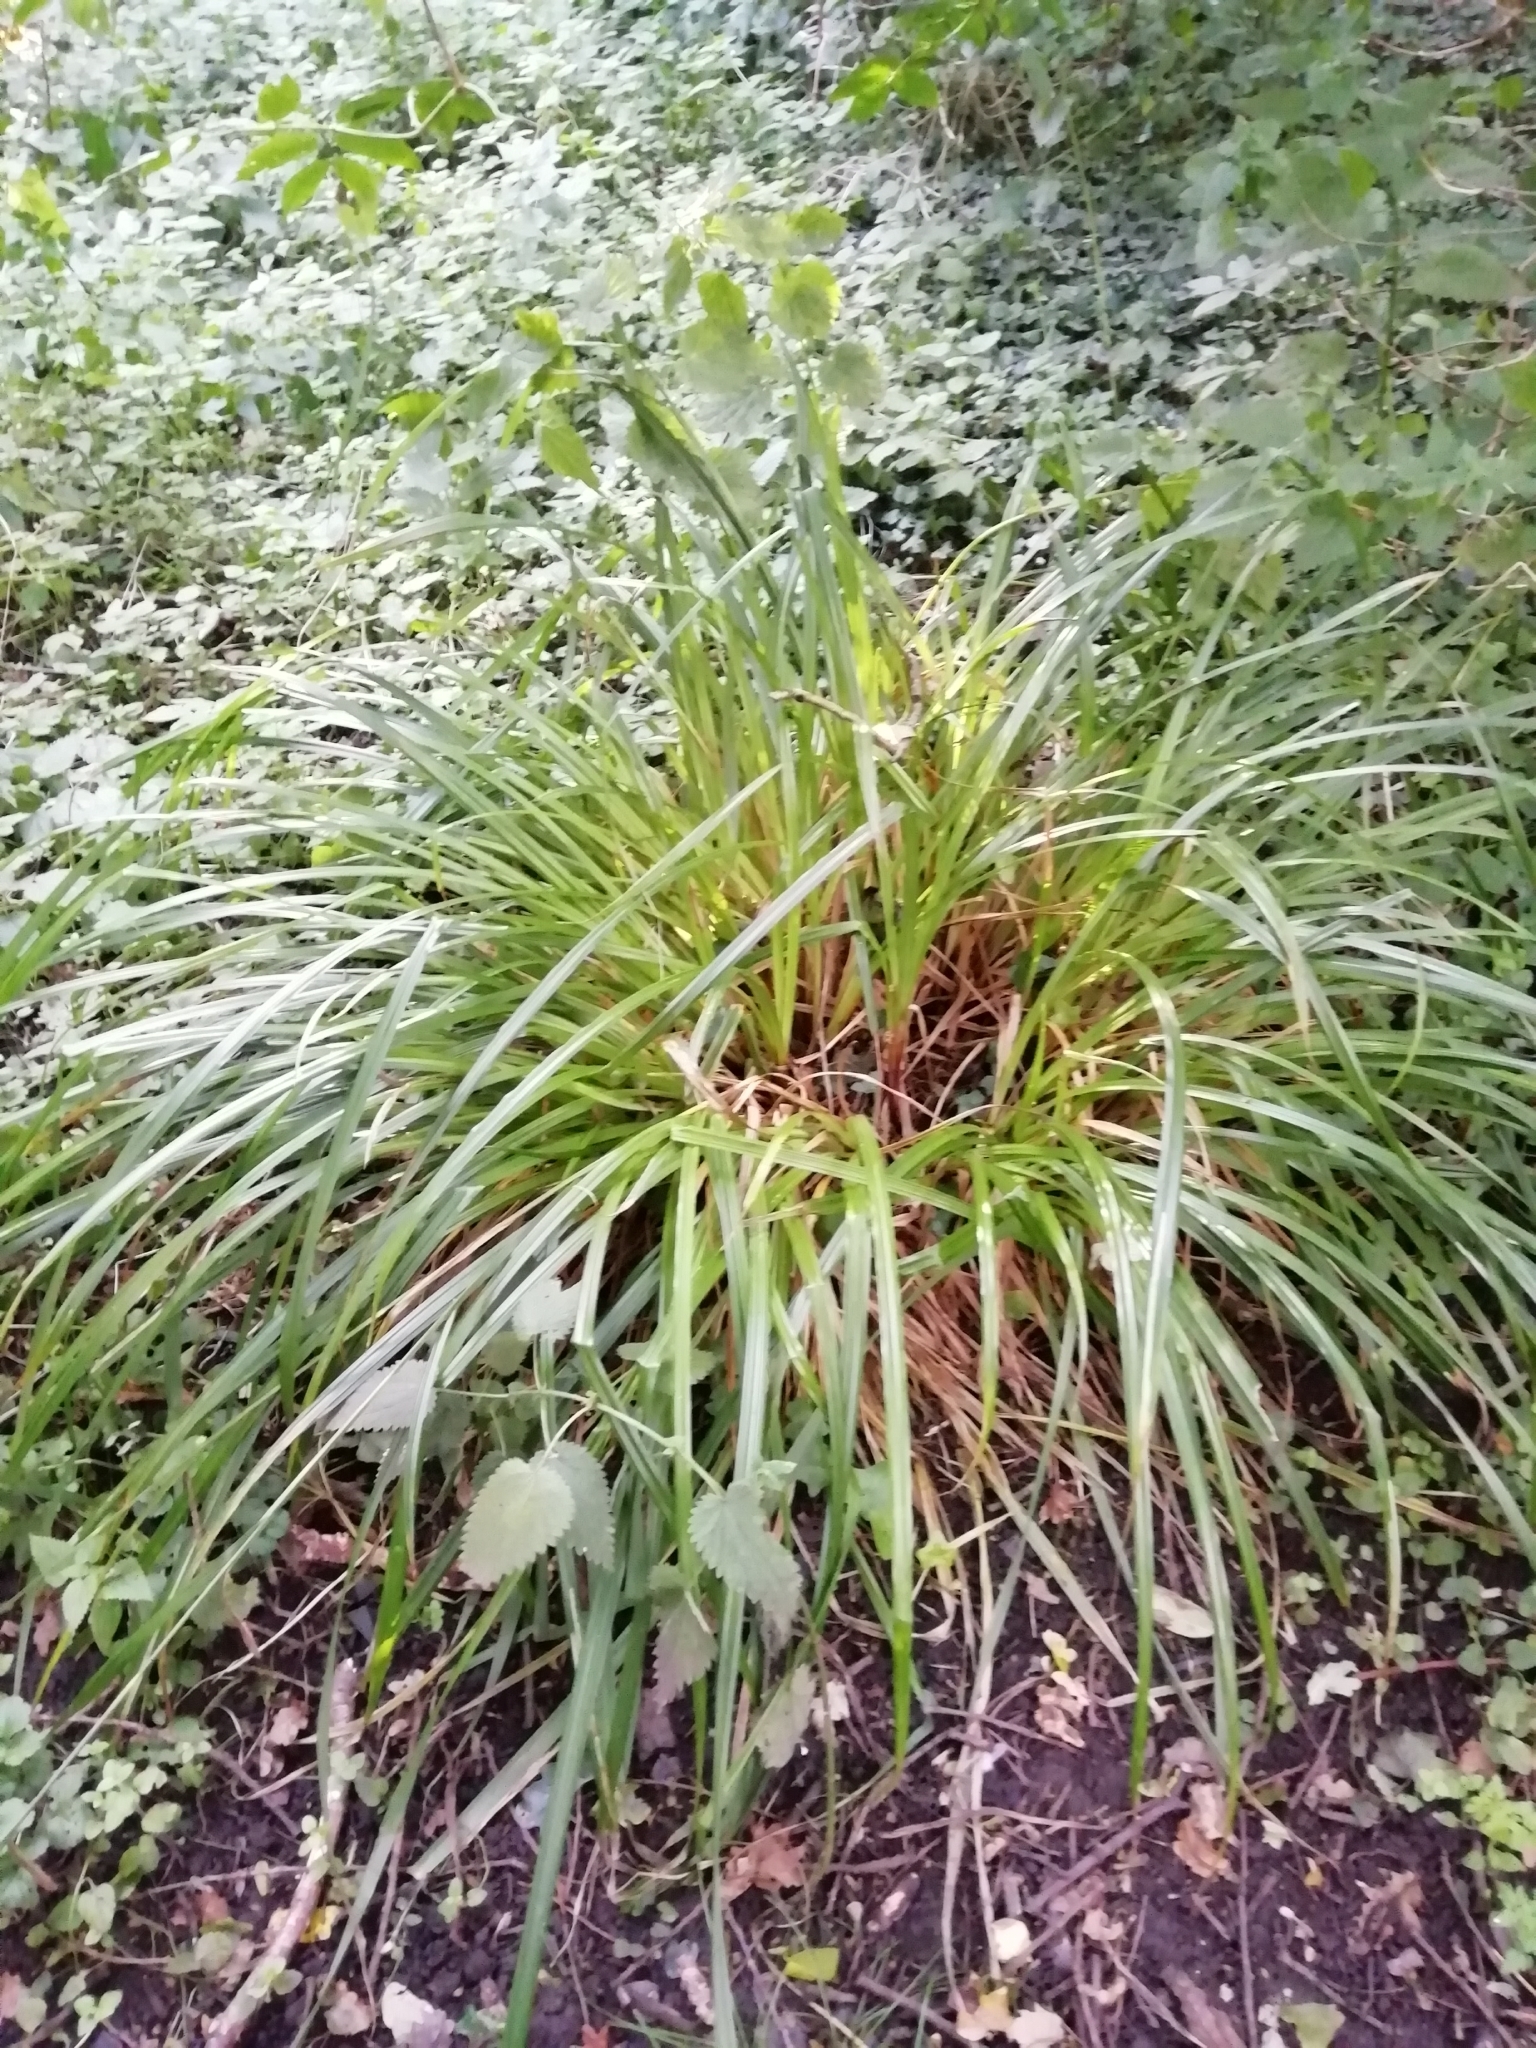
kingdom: Plantae
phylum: Tracheophyta
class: Liliopsida
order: Poales
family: Cyperaceae
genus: Carex
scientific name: Carex pendula
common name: Pendulous sedge
